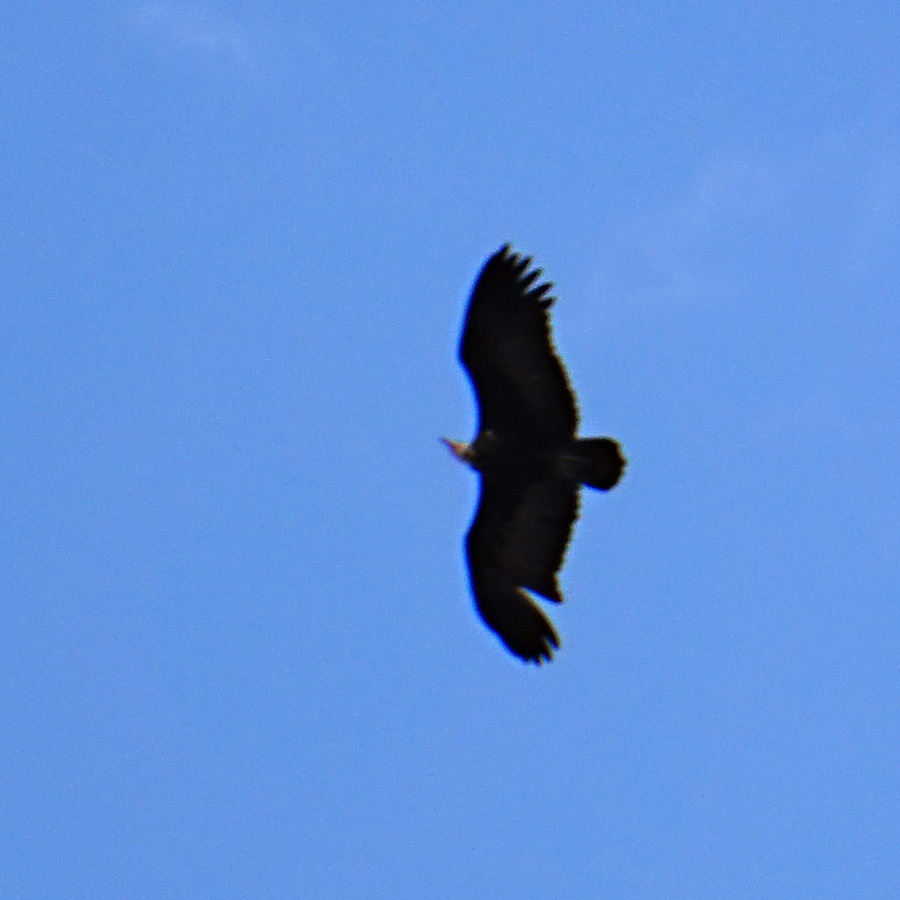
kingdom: Animalia
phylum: Chordata
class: Aves
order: Accipitriformes
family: Accipitridae
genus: Necrosyrtes
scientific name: Necrosyrtes monachus
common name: Hooded vulture
